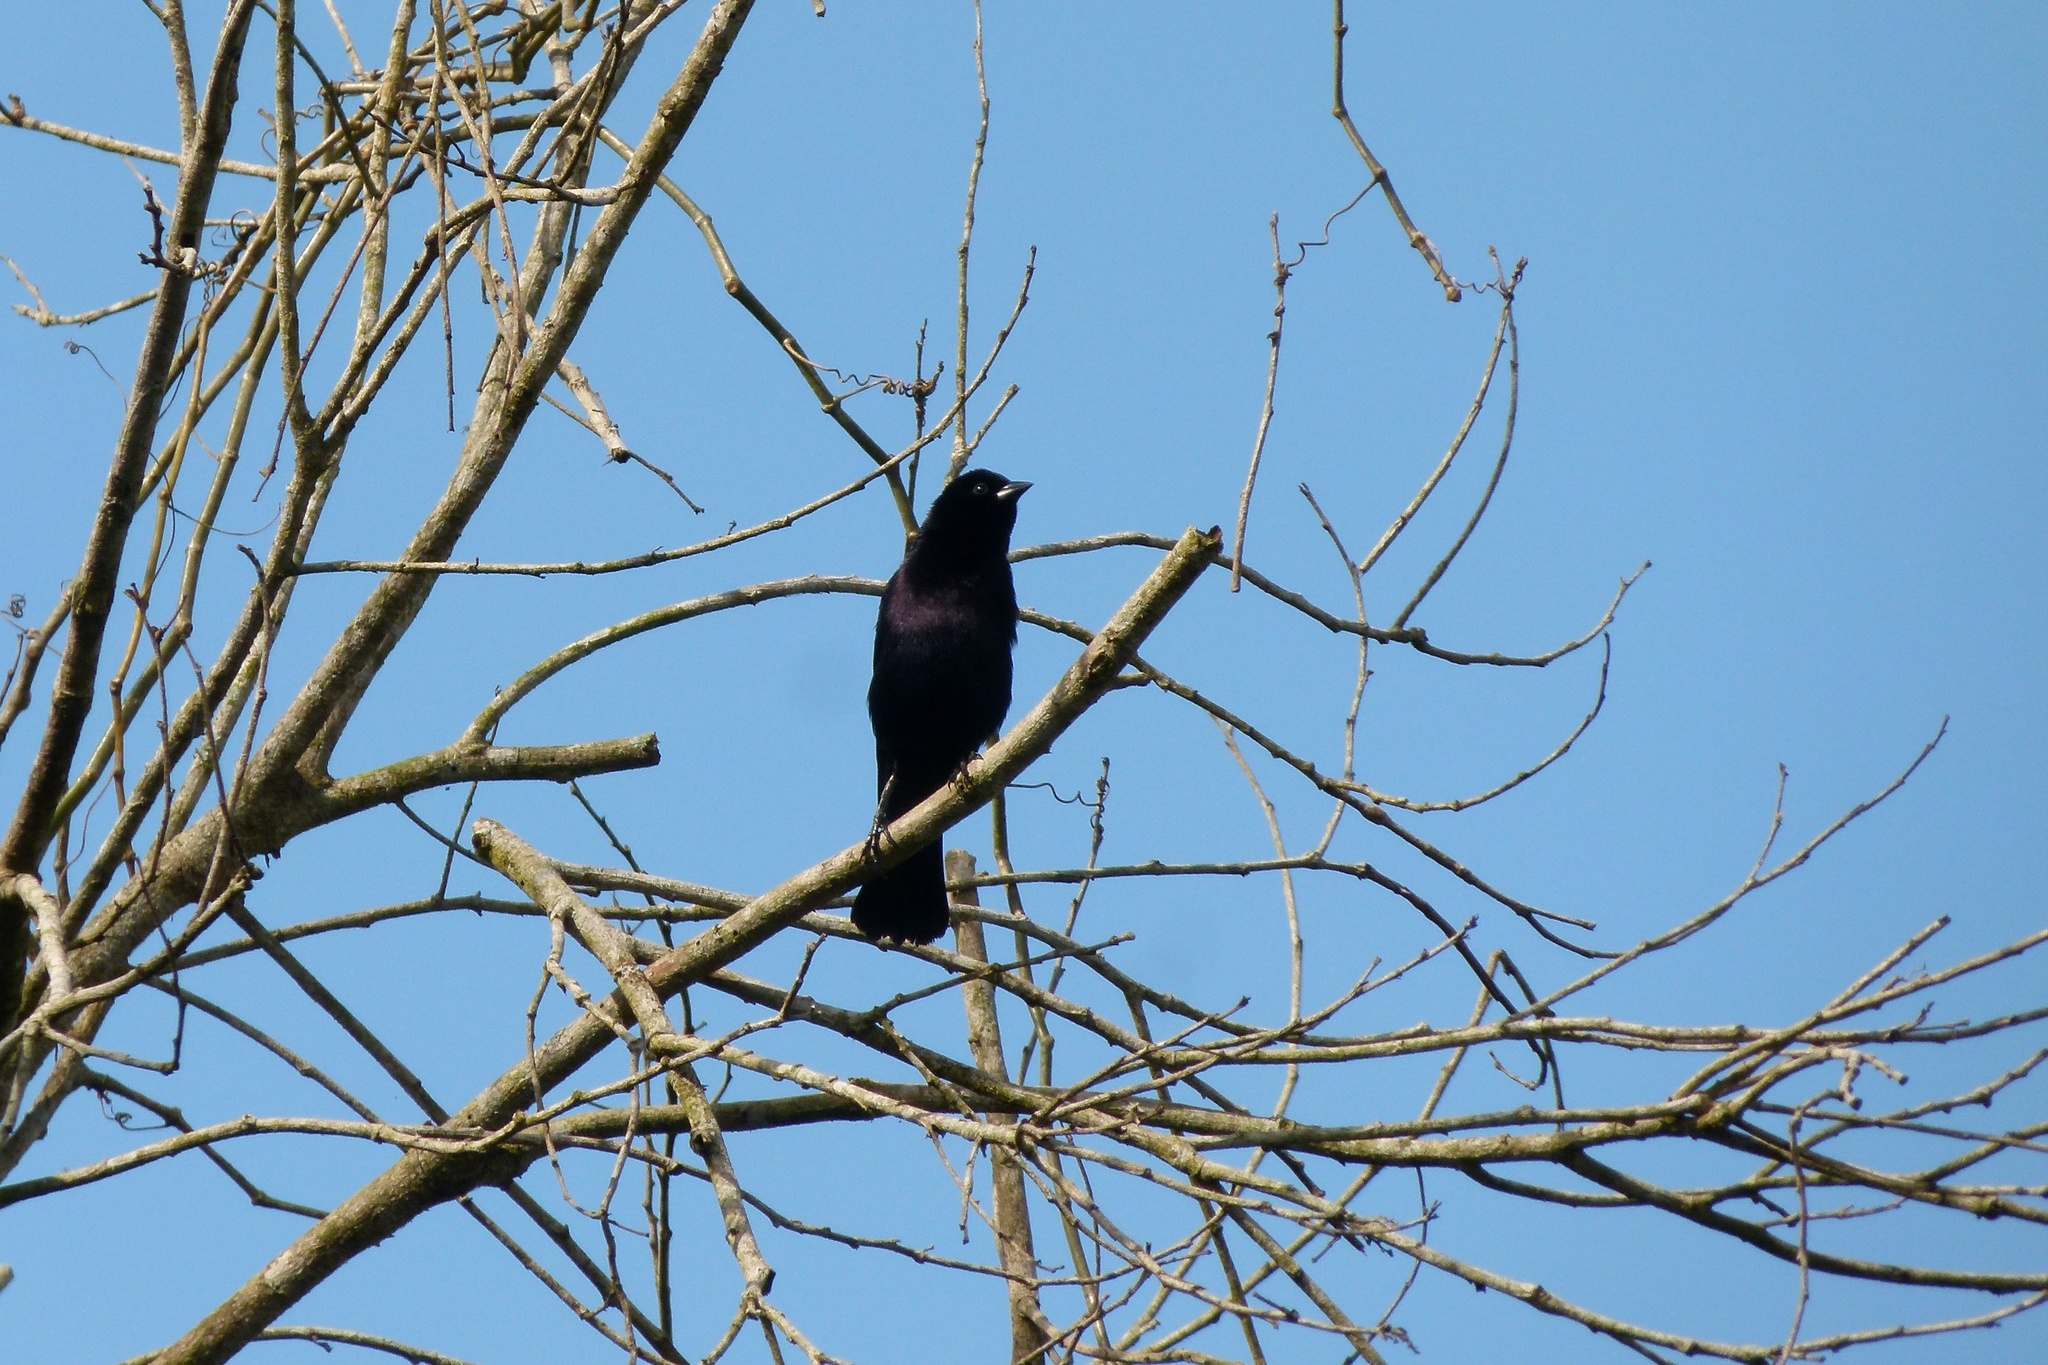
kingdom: Animalia
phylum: Chordata
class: Aves
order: Passeriformes
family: Icteridae
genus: Molothrus
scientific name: Molothrus bonariensis
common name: Shiny cowbird
